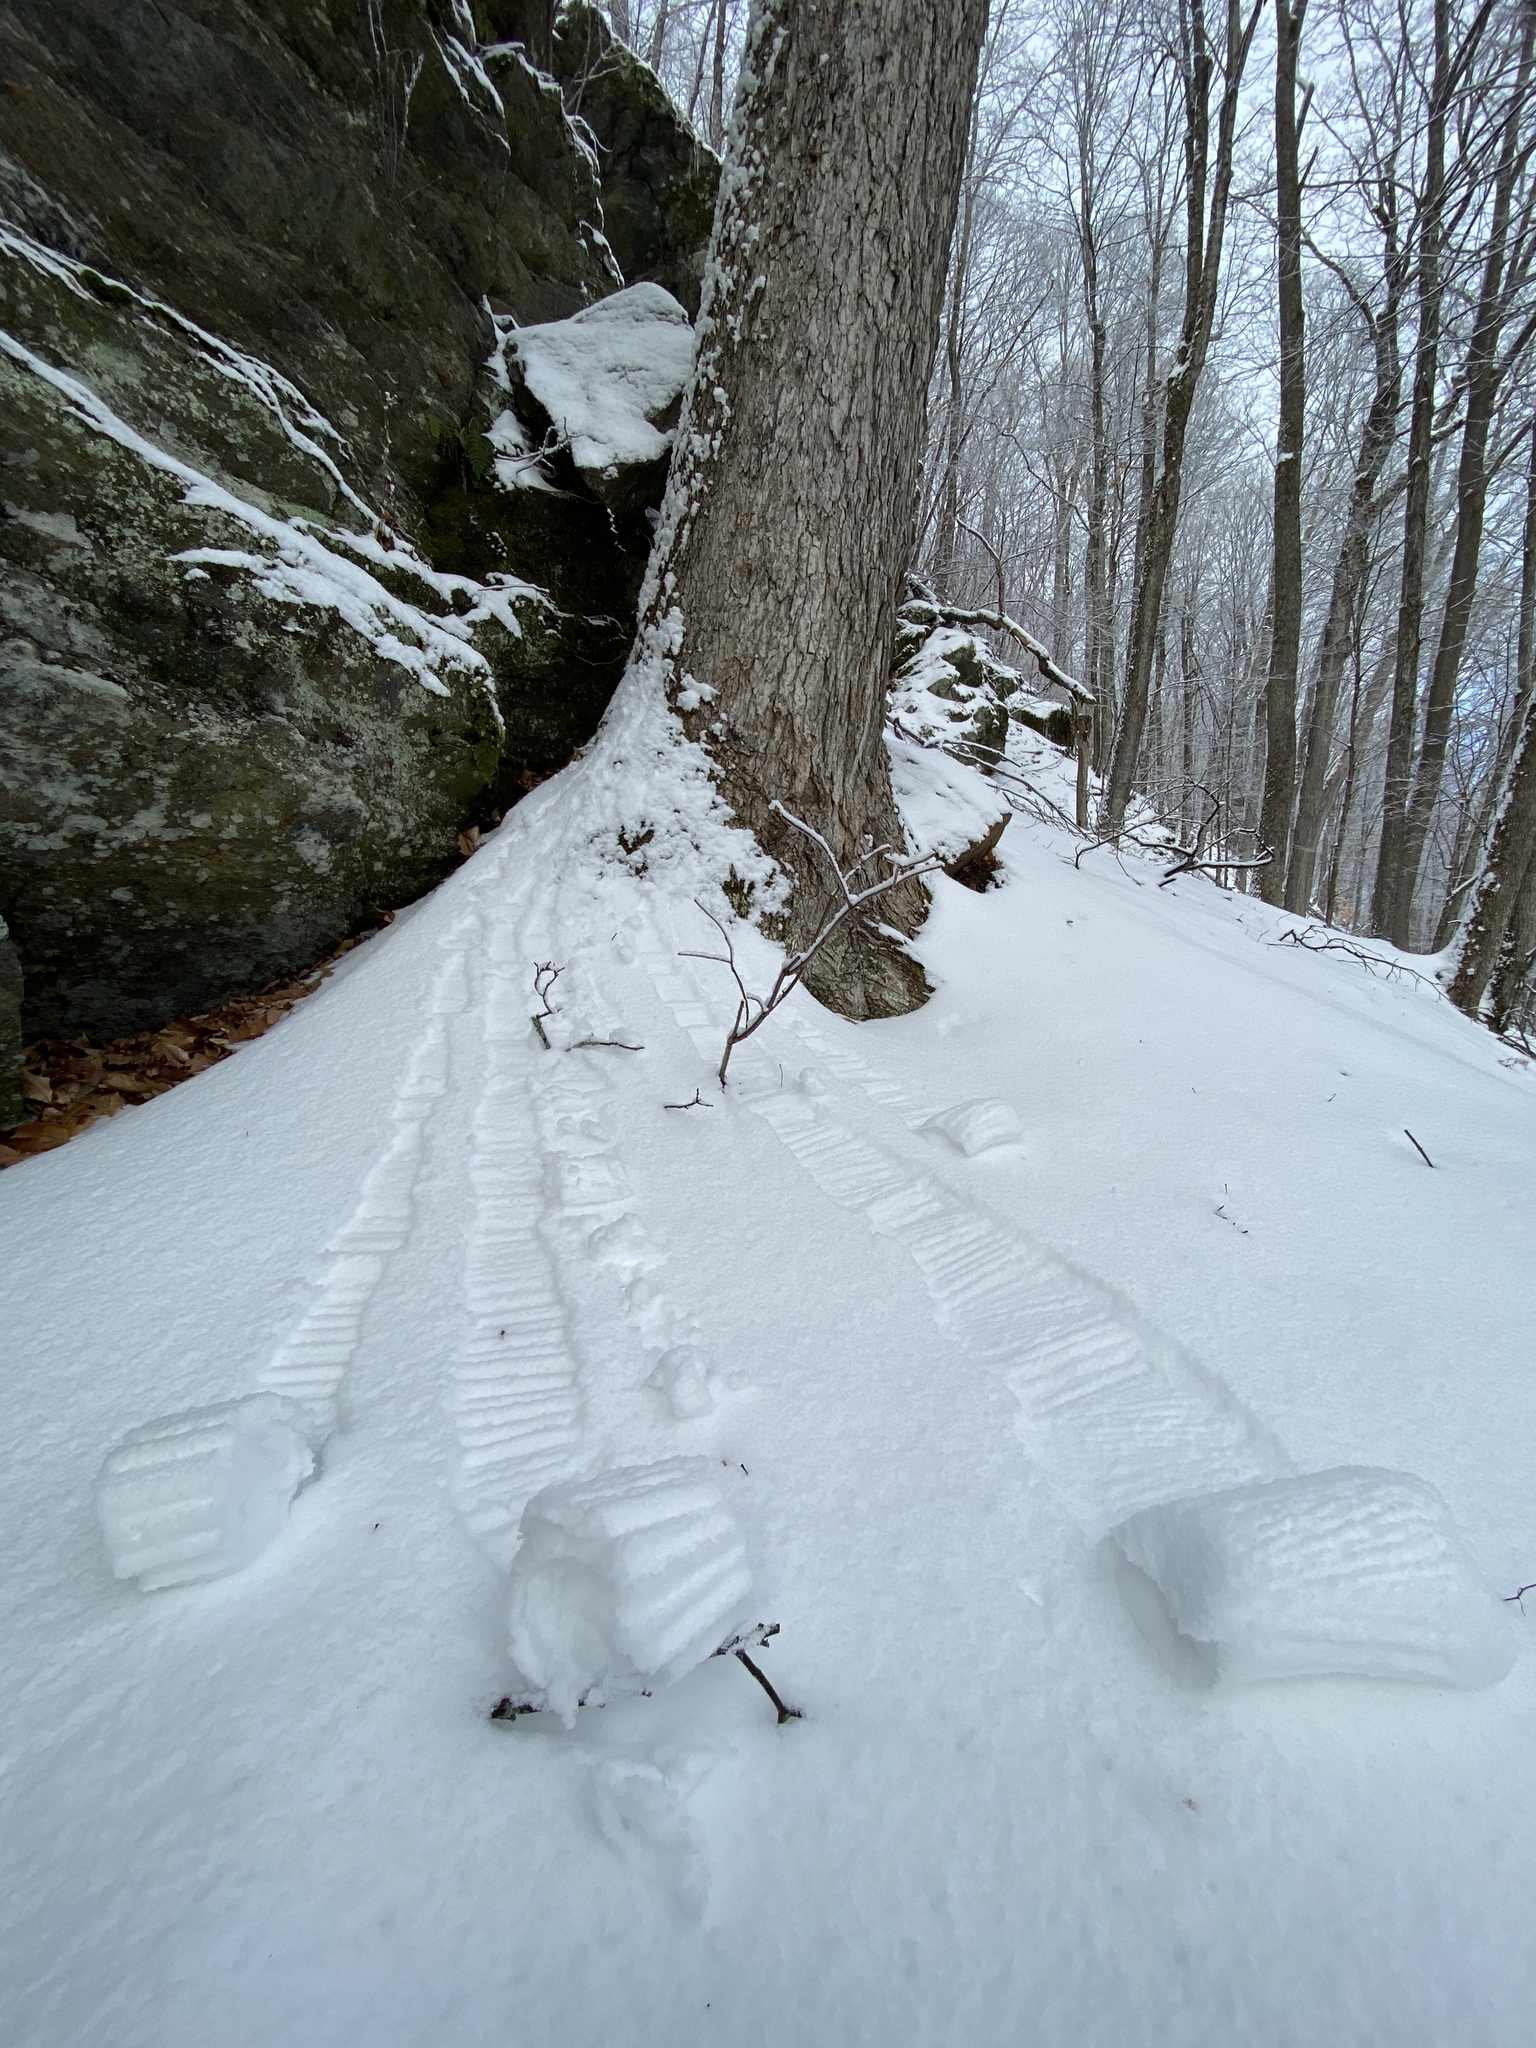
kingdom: Plantae
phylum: Tracheophyta
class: Magnoliopsida
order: Sapindales
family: Sapindaceae
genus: Acer
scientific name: Acer saccharum
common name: Sugar maple
